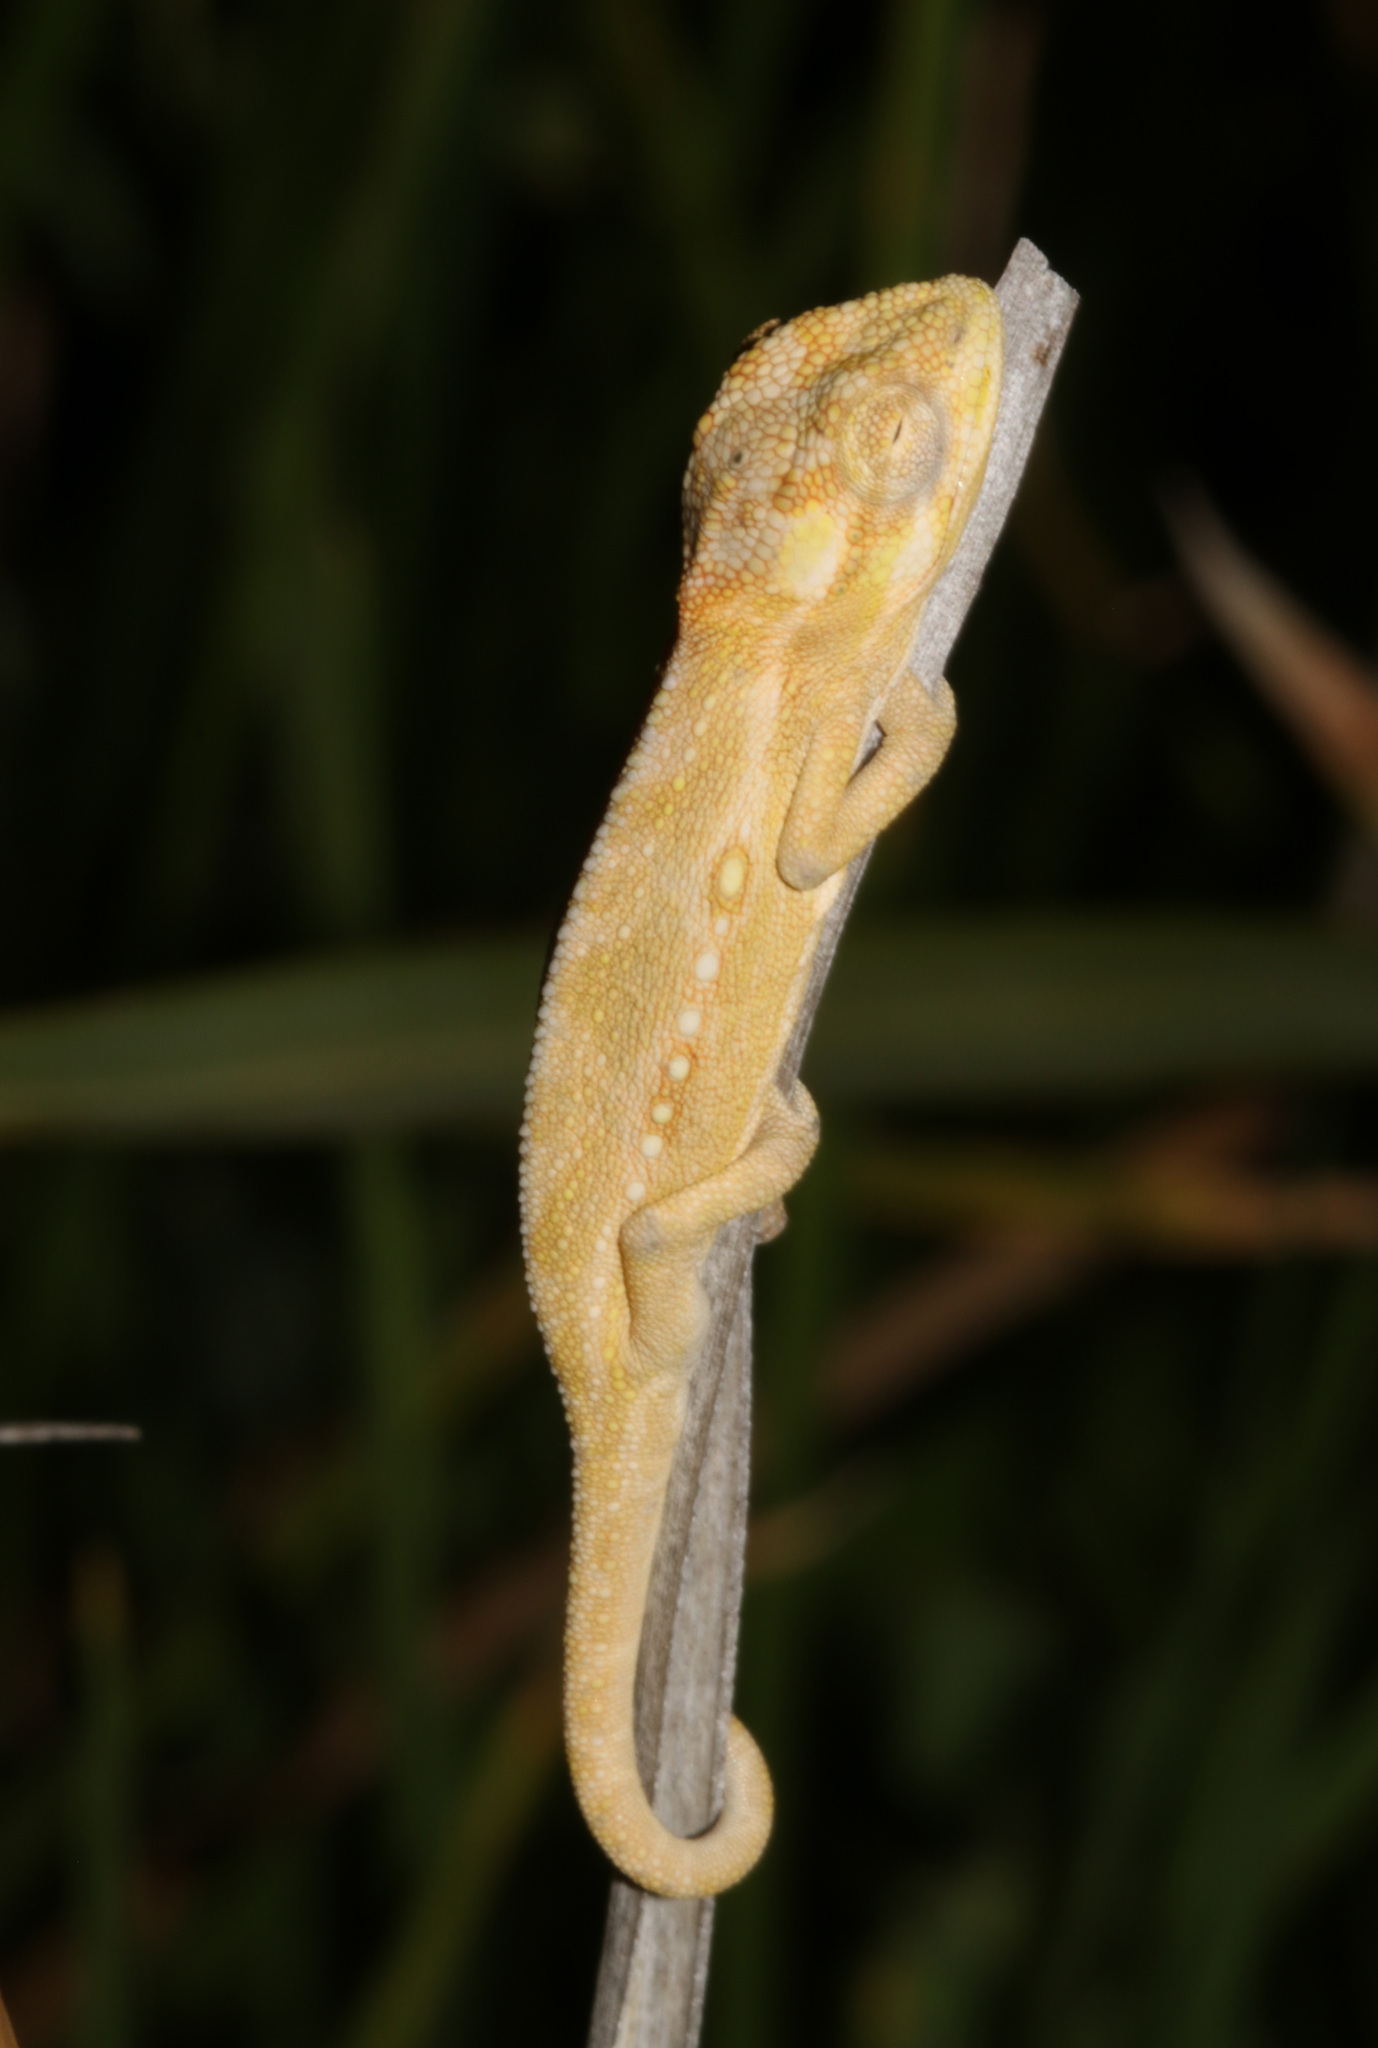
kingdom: Animalia
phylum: Chordata
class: Squamata
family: Chamaeleonidae
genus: Bradypodion
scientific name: Bradypodion pumilum
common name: Cape dwarf chameleon
